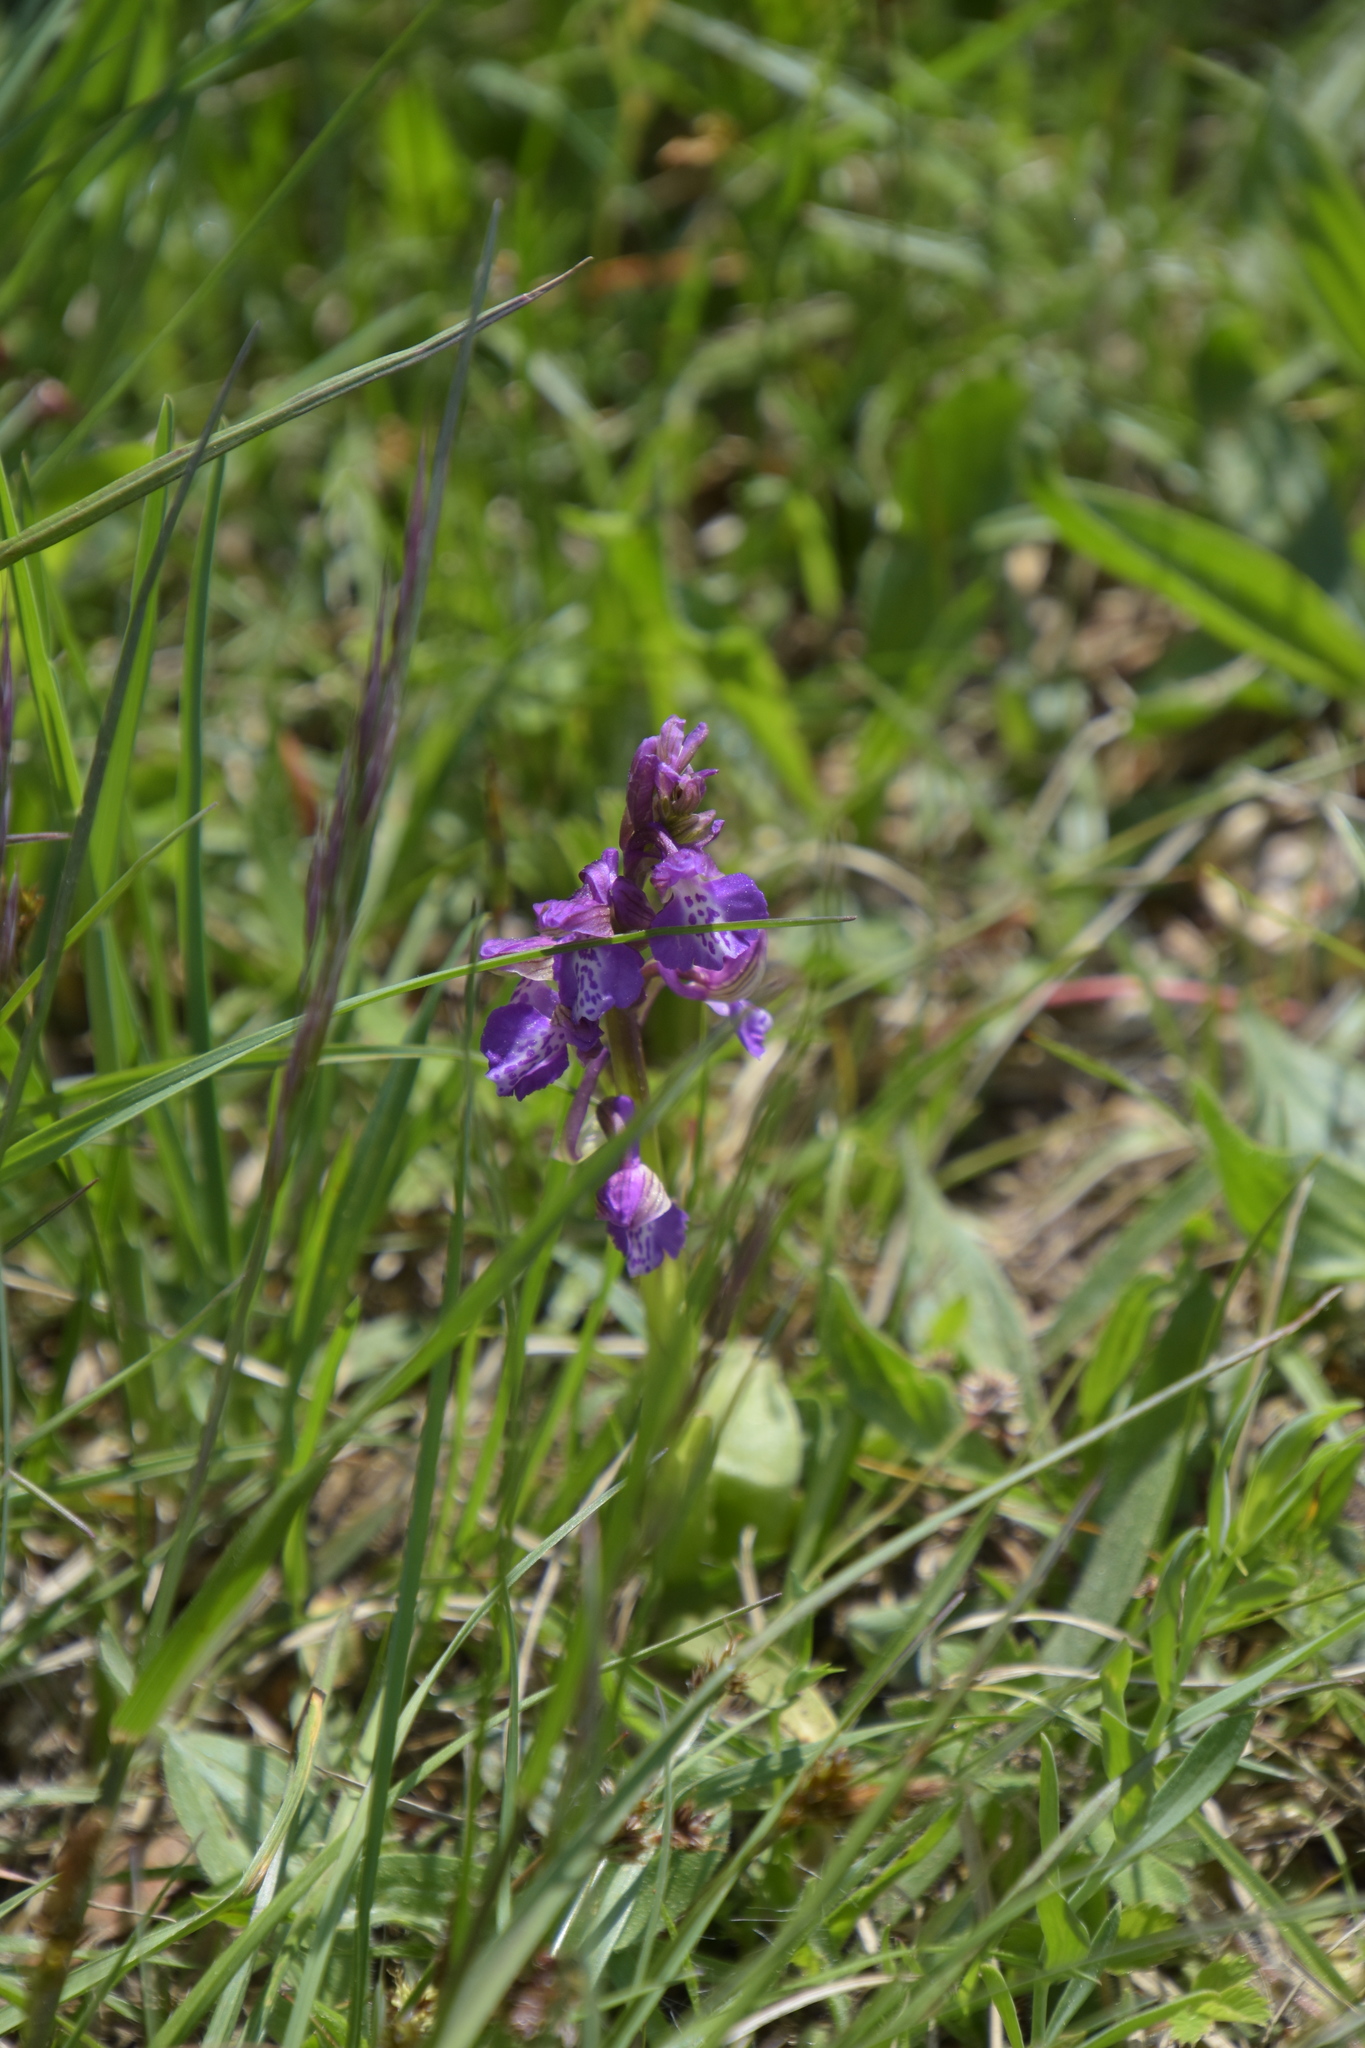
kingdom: Plantae
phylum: Tracheophyta
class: Liliopsida
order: Asparagales
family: Orchidaceae
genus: Anacamptis
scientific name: Anacamptis morio
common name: Green-winged orchid
